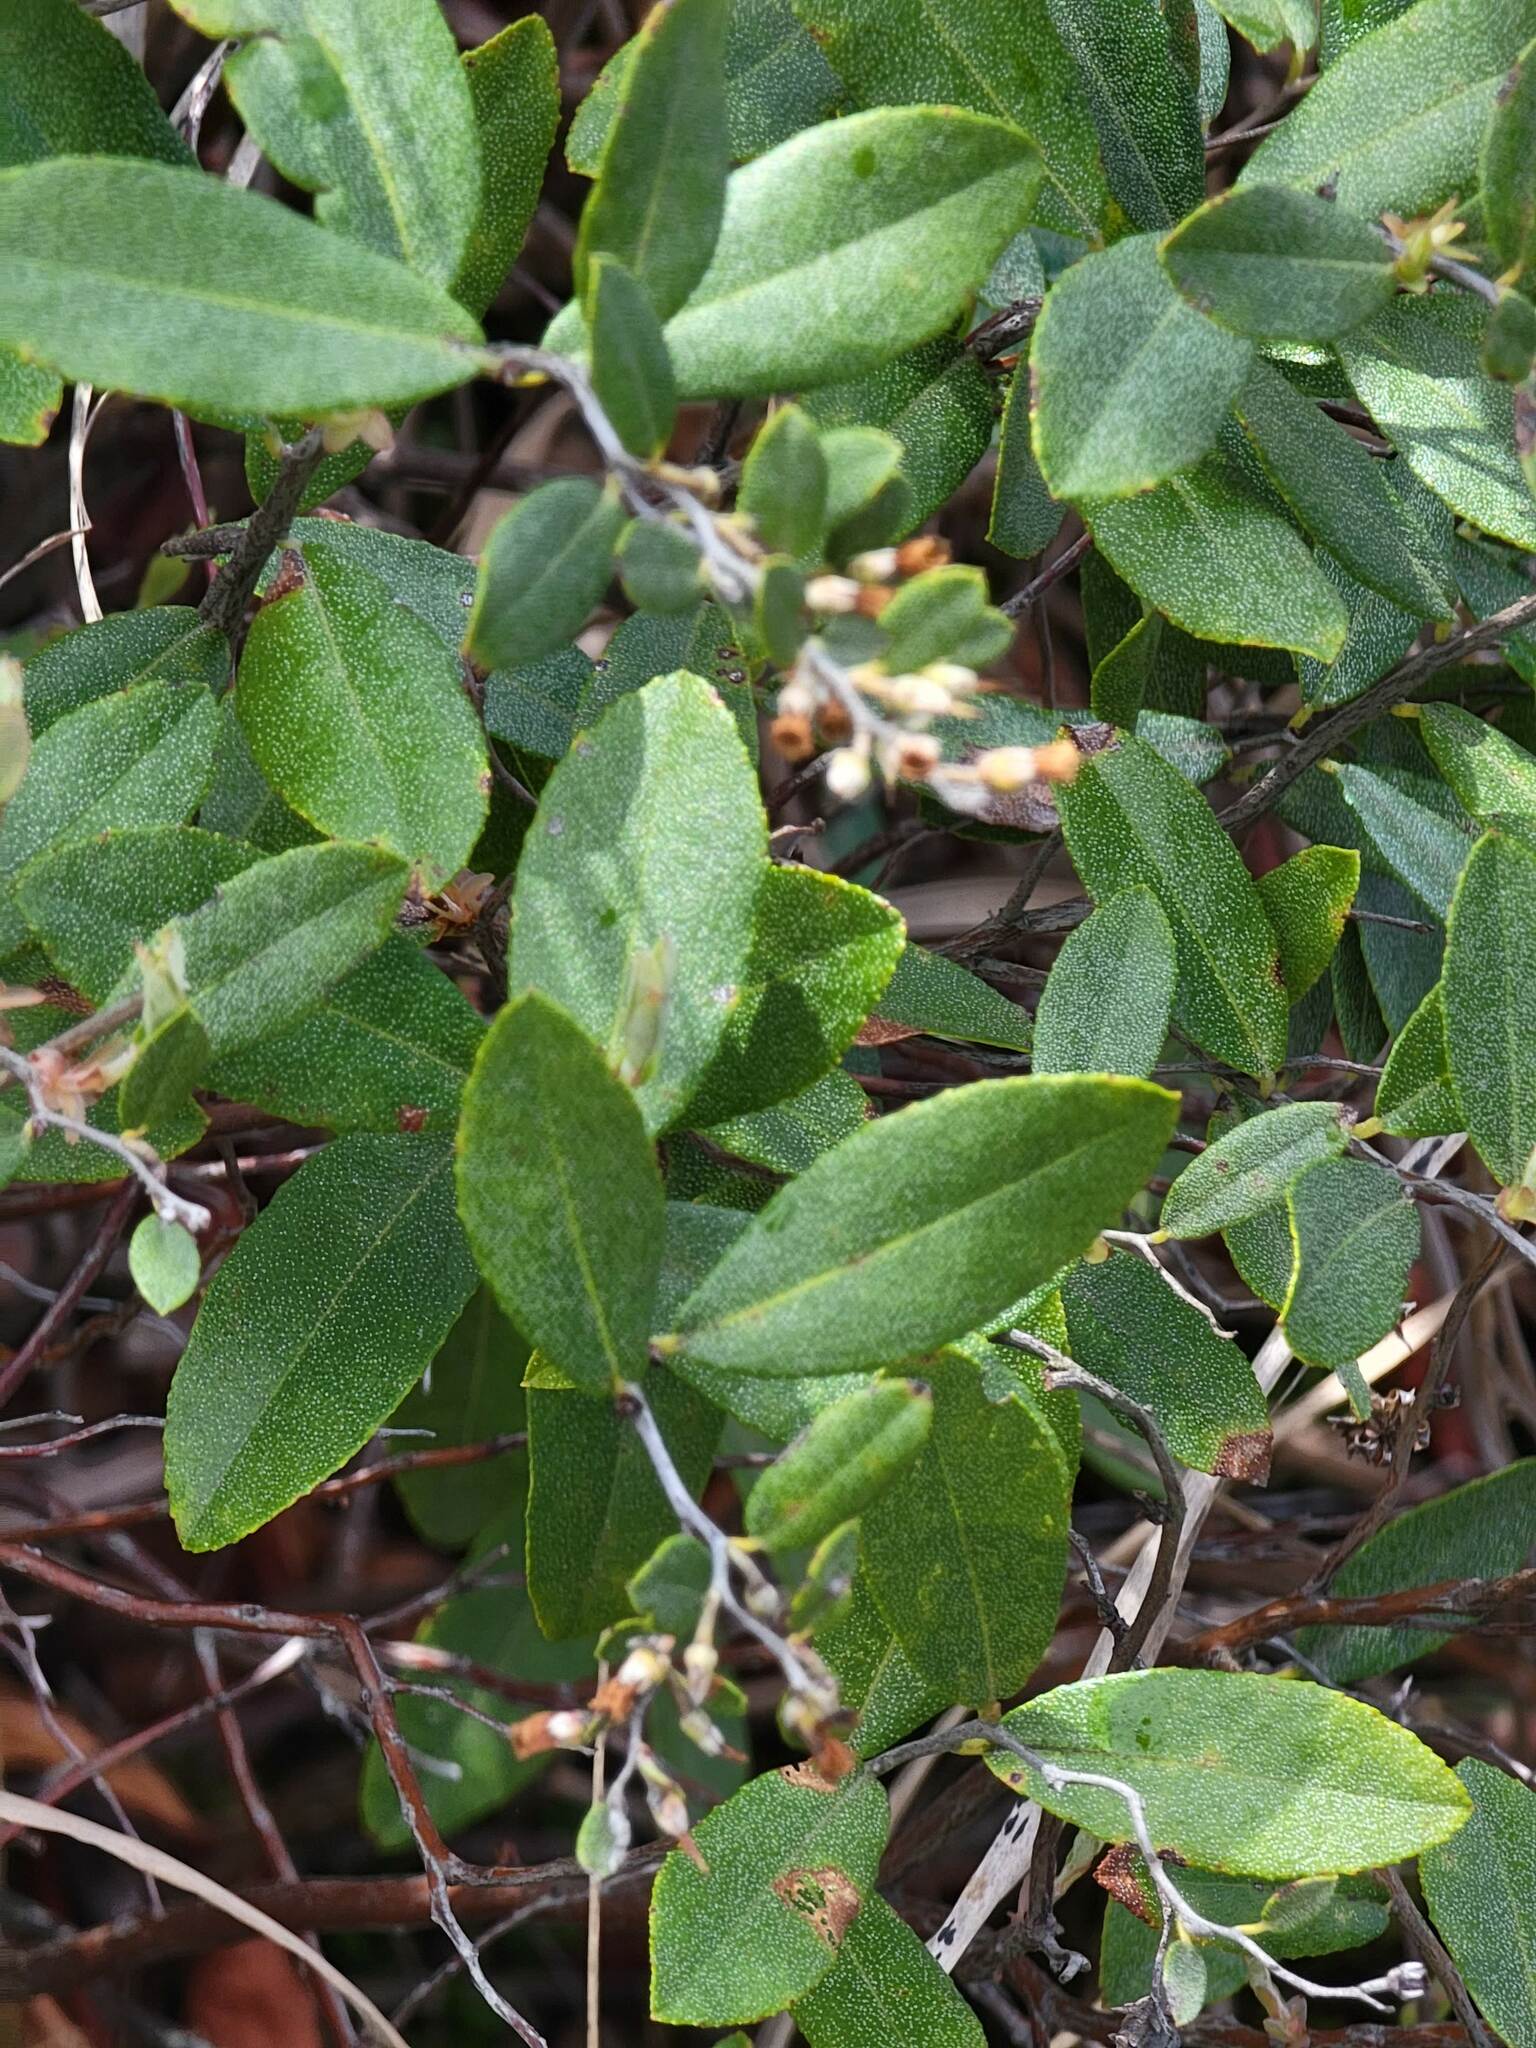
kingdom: Plantae
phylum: Tracheophyta
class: Magnoliopsida
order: Ericales
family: Ericaceae
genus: Chamaedaphne
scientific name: Chamaedaphne calyculata
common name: Leatherleaf
